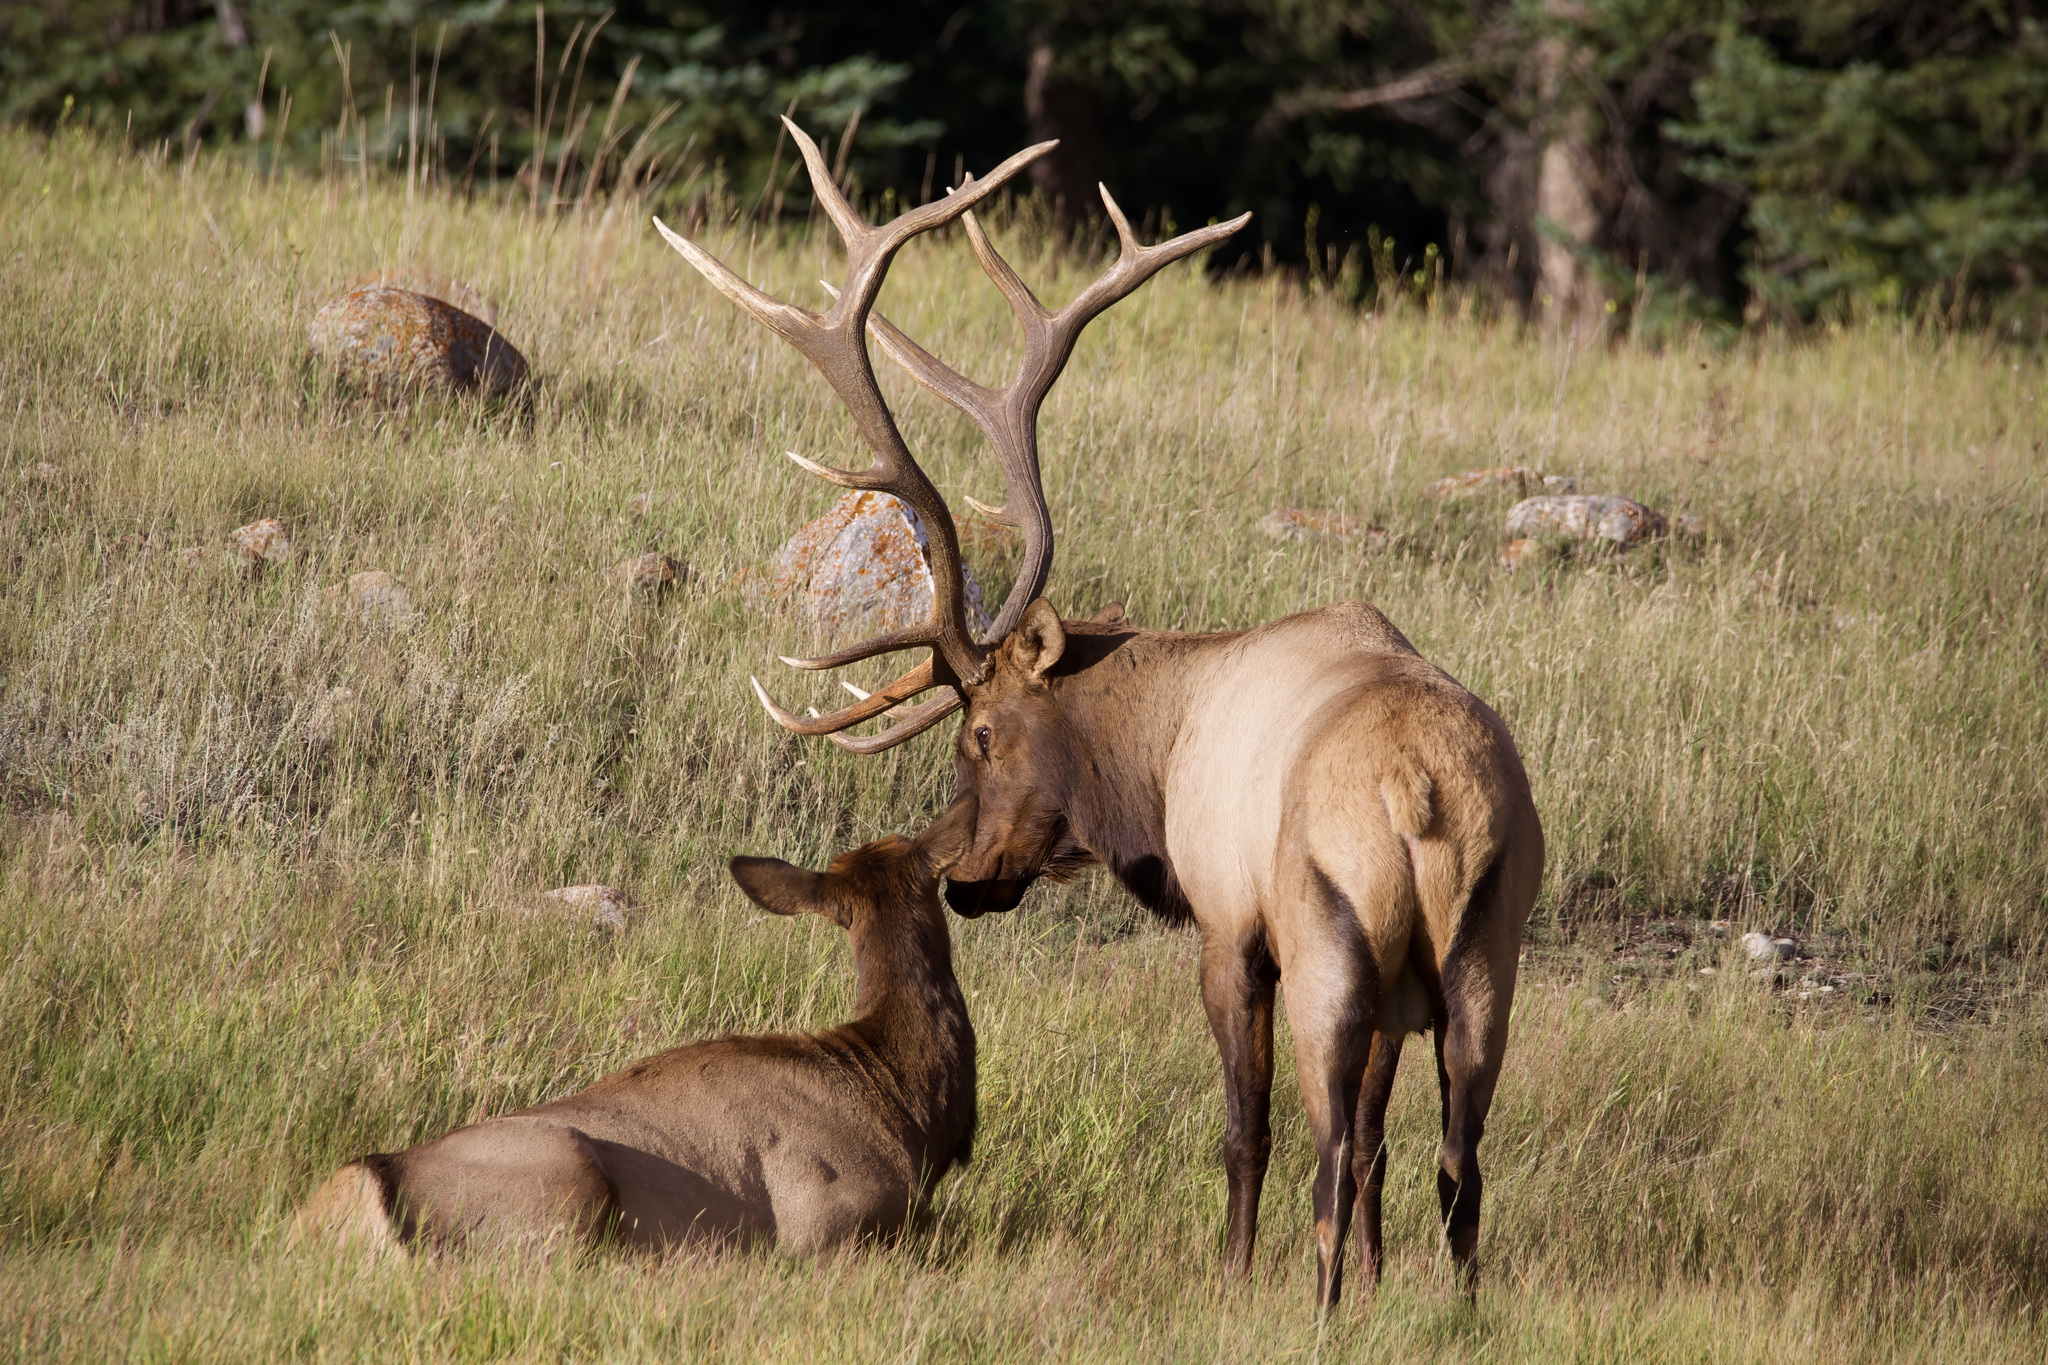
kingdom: Animalia
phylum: Chordata
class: Mammalia
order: Artiodactyla
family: Cervidae
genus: Cervus
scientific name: Cervus elaphus
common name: Red deer
